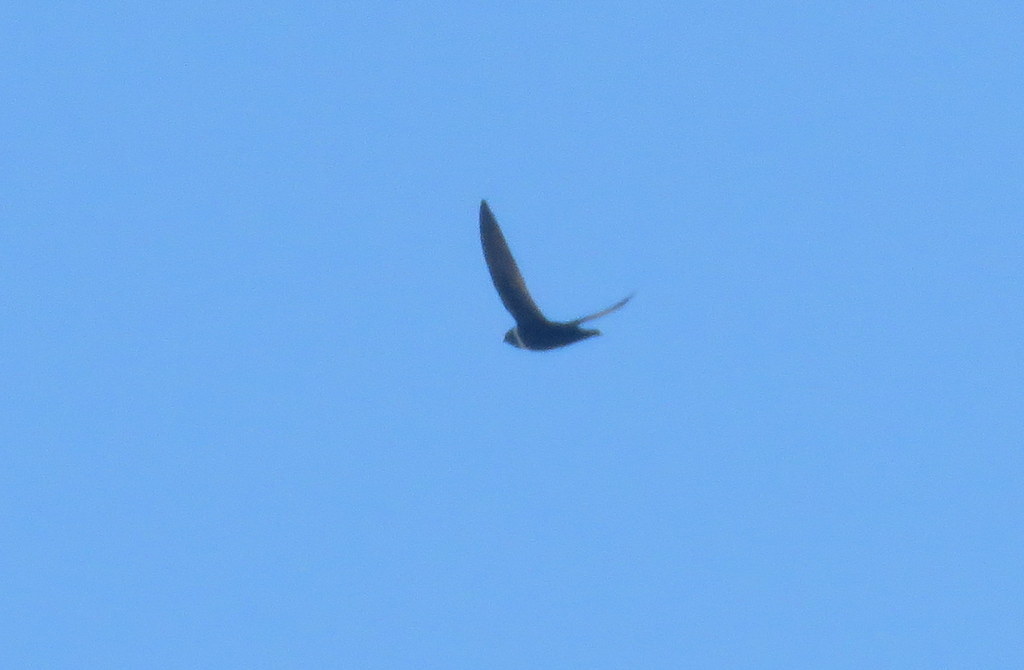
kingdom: Animalia
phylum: Chordata
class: Aves
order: Apodiformes
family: Apodidae
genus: Streptoprocne
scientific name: Streptoprocne zonaris
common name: White-collared swift
